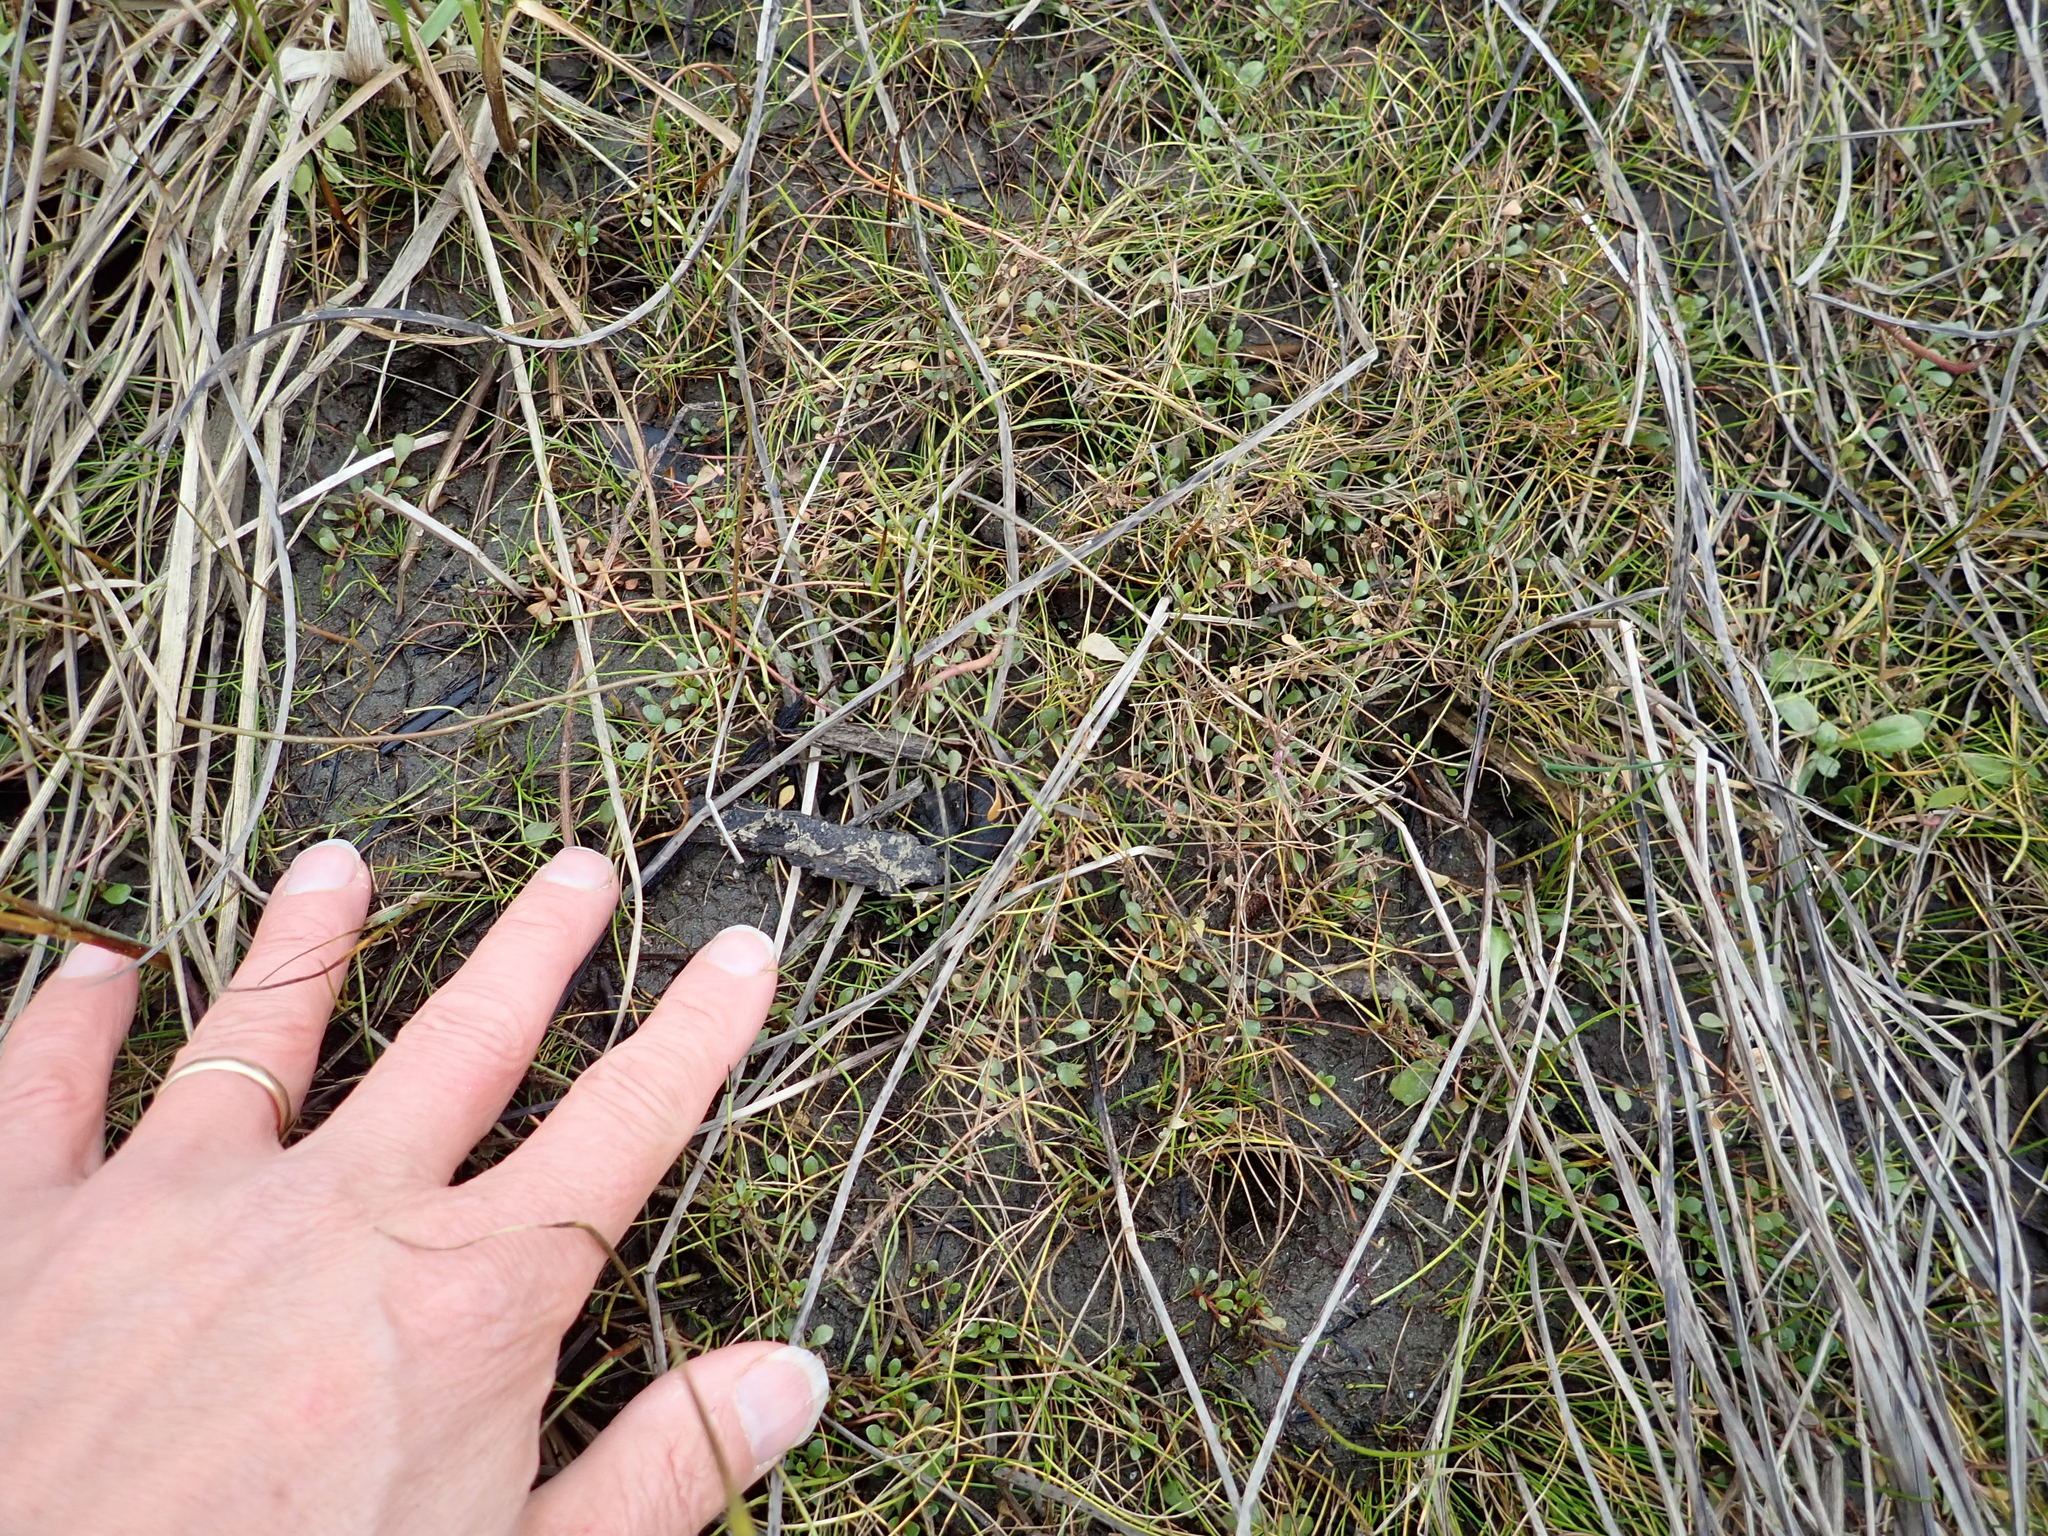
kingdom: Plantae
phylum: Tracheophyta
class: Magnoliopsida
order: Ericales
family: Primulaceae
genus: Samolus
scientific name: Samolus repens
